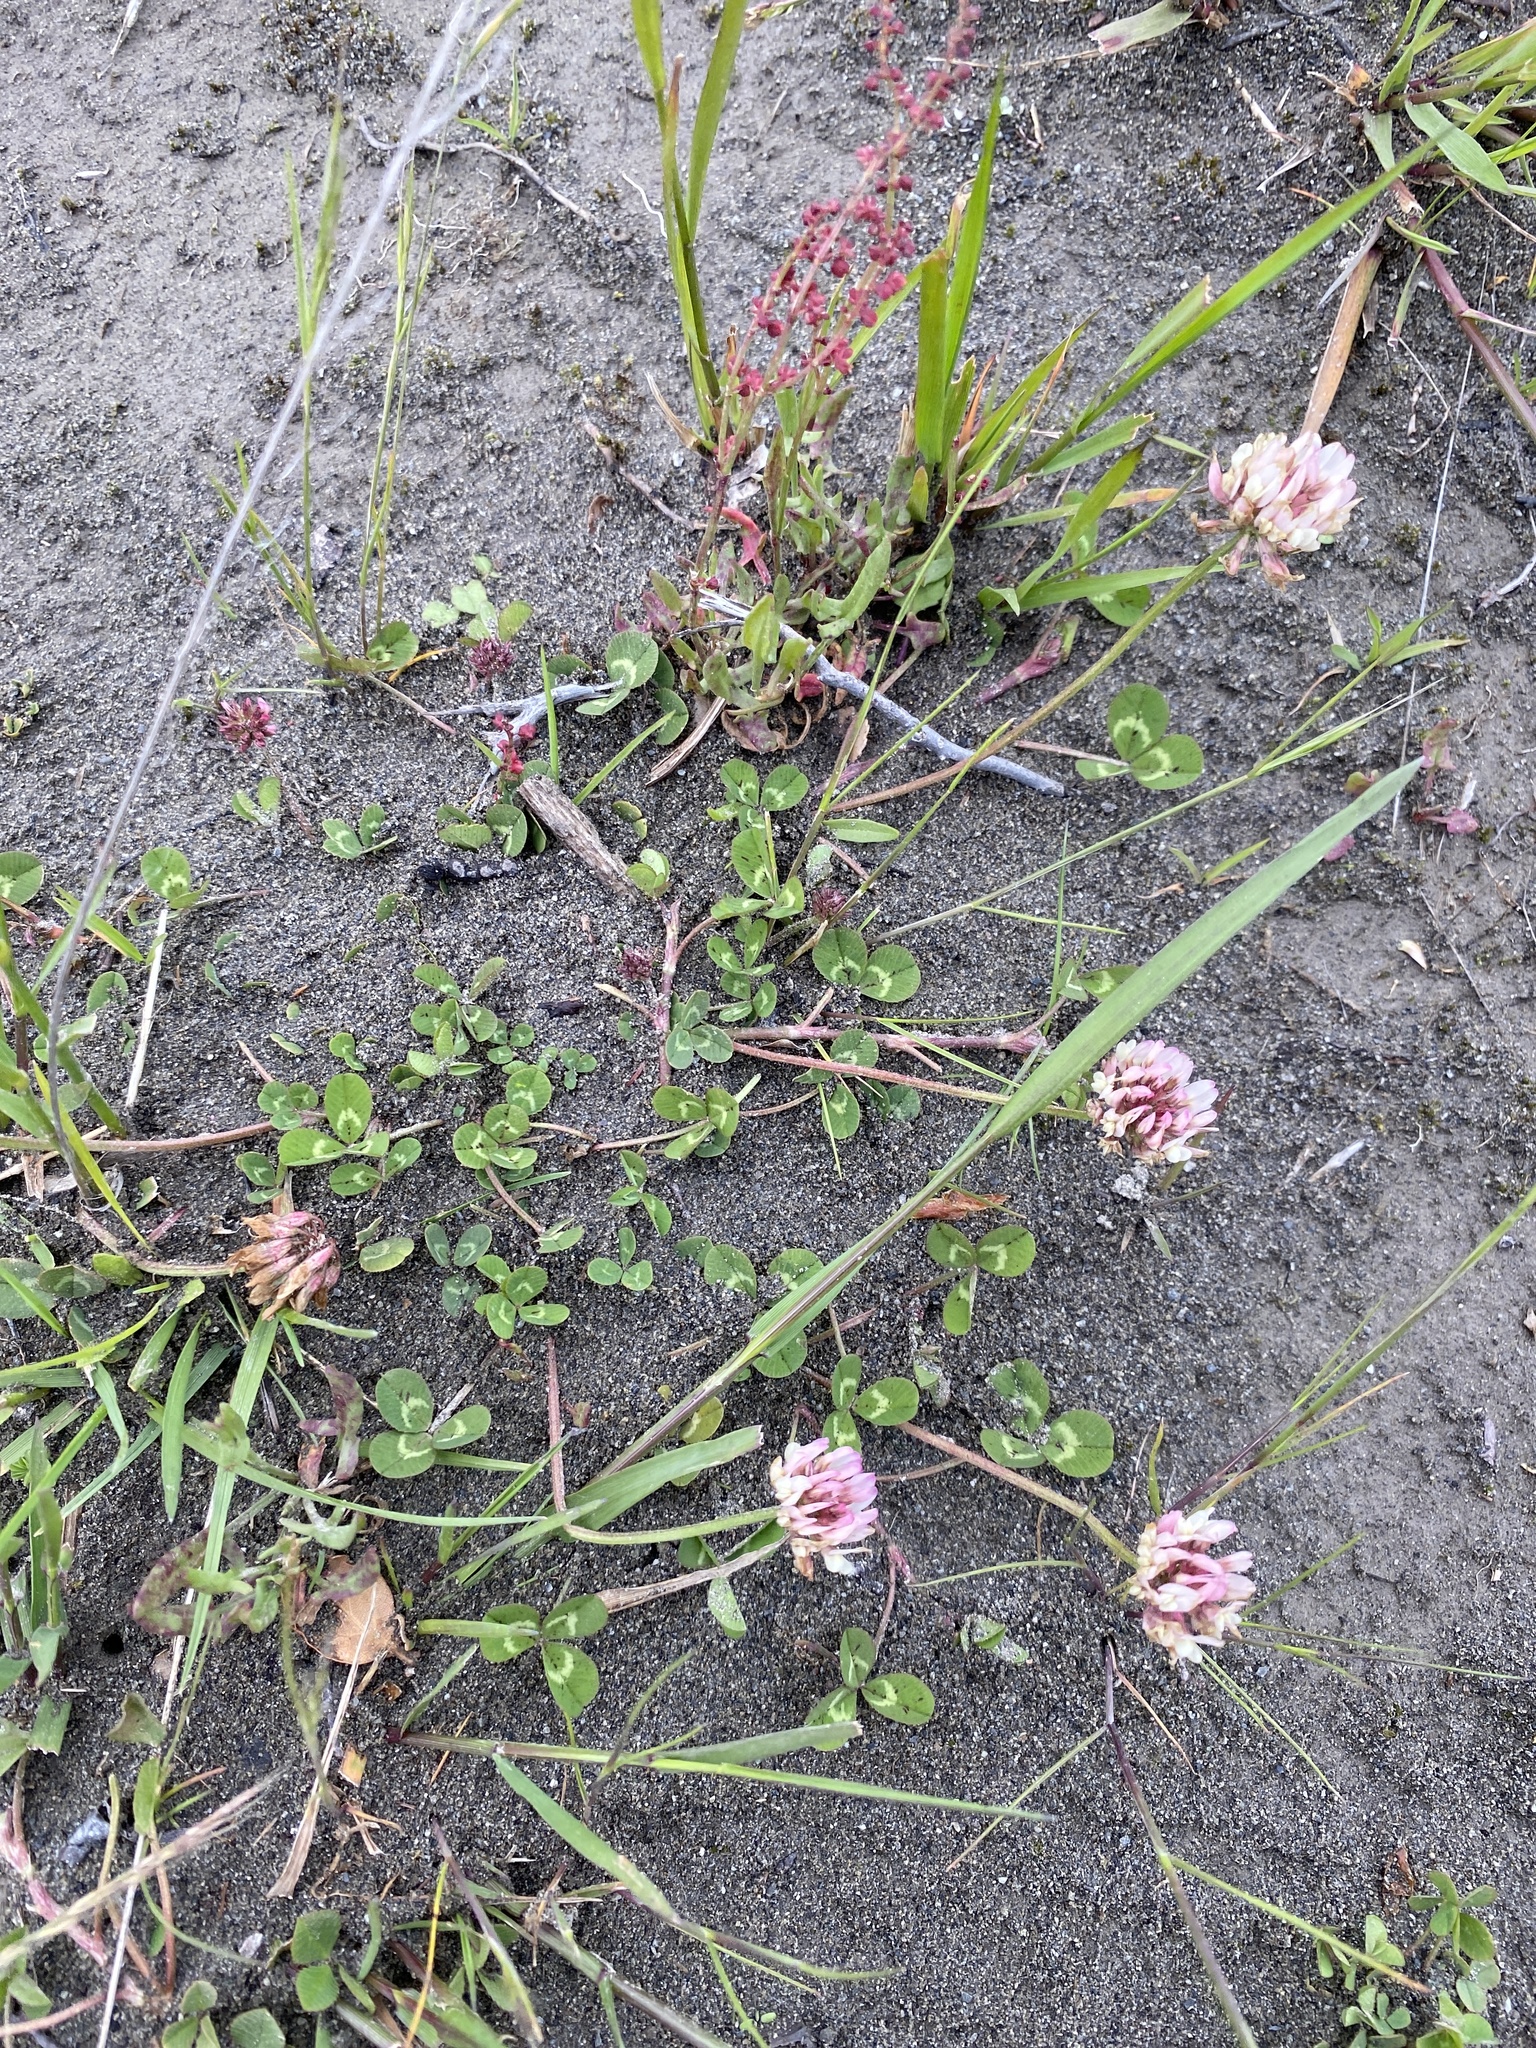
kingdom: Plantae
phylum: Tracheophyta
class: Magnoliopsida
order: Fabales
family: Fabaceae
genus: Trifolium
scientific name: Trifolium repens
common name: White clover
